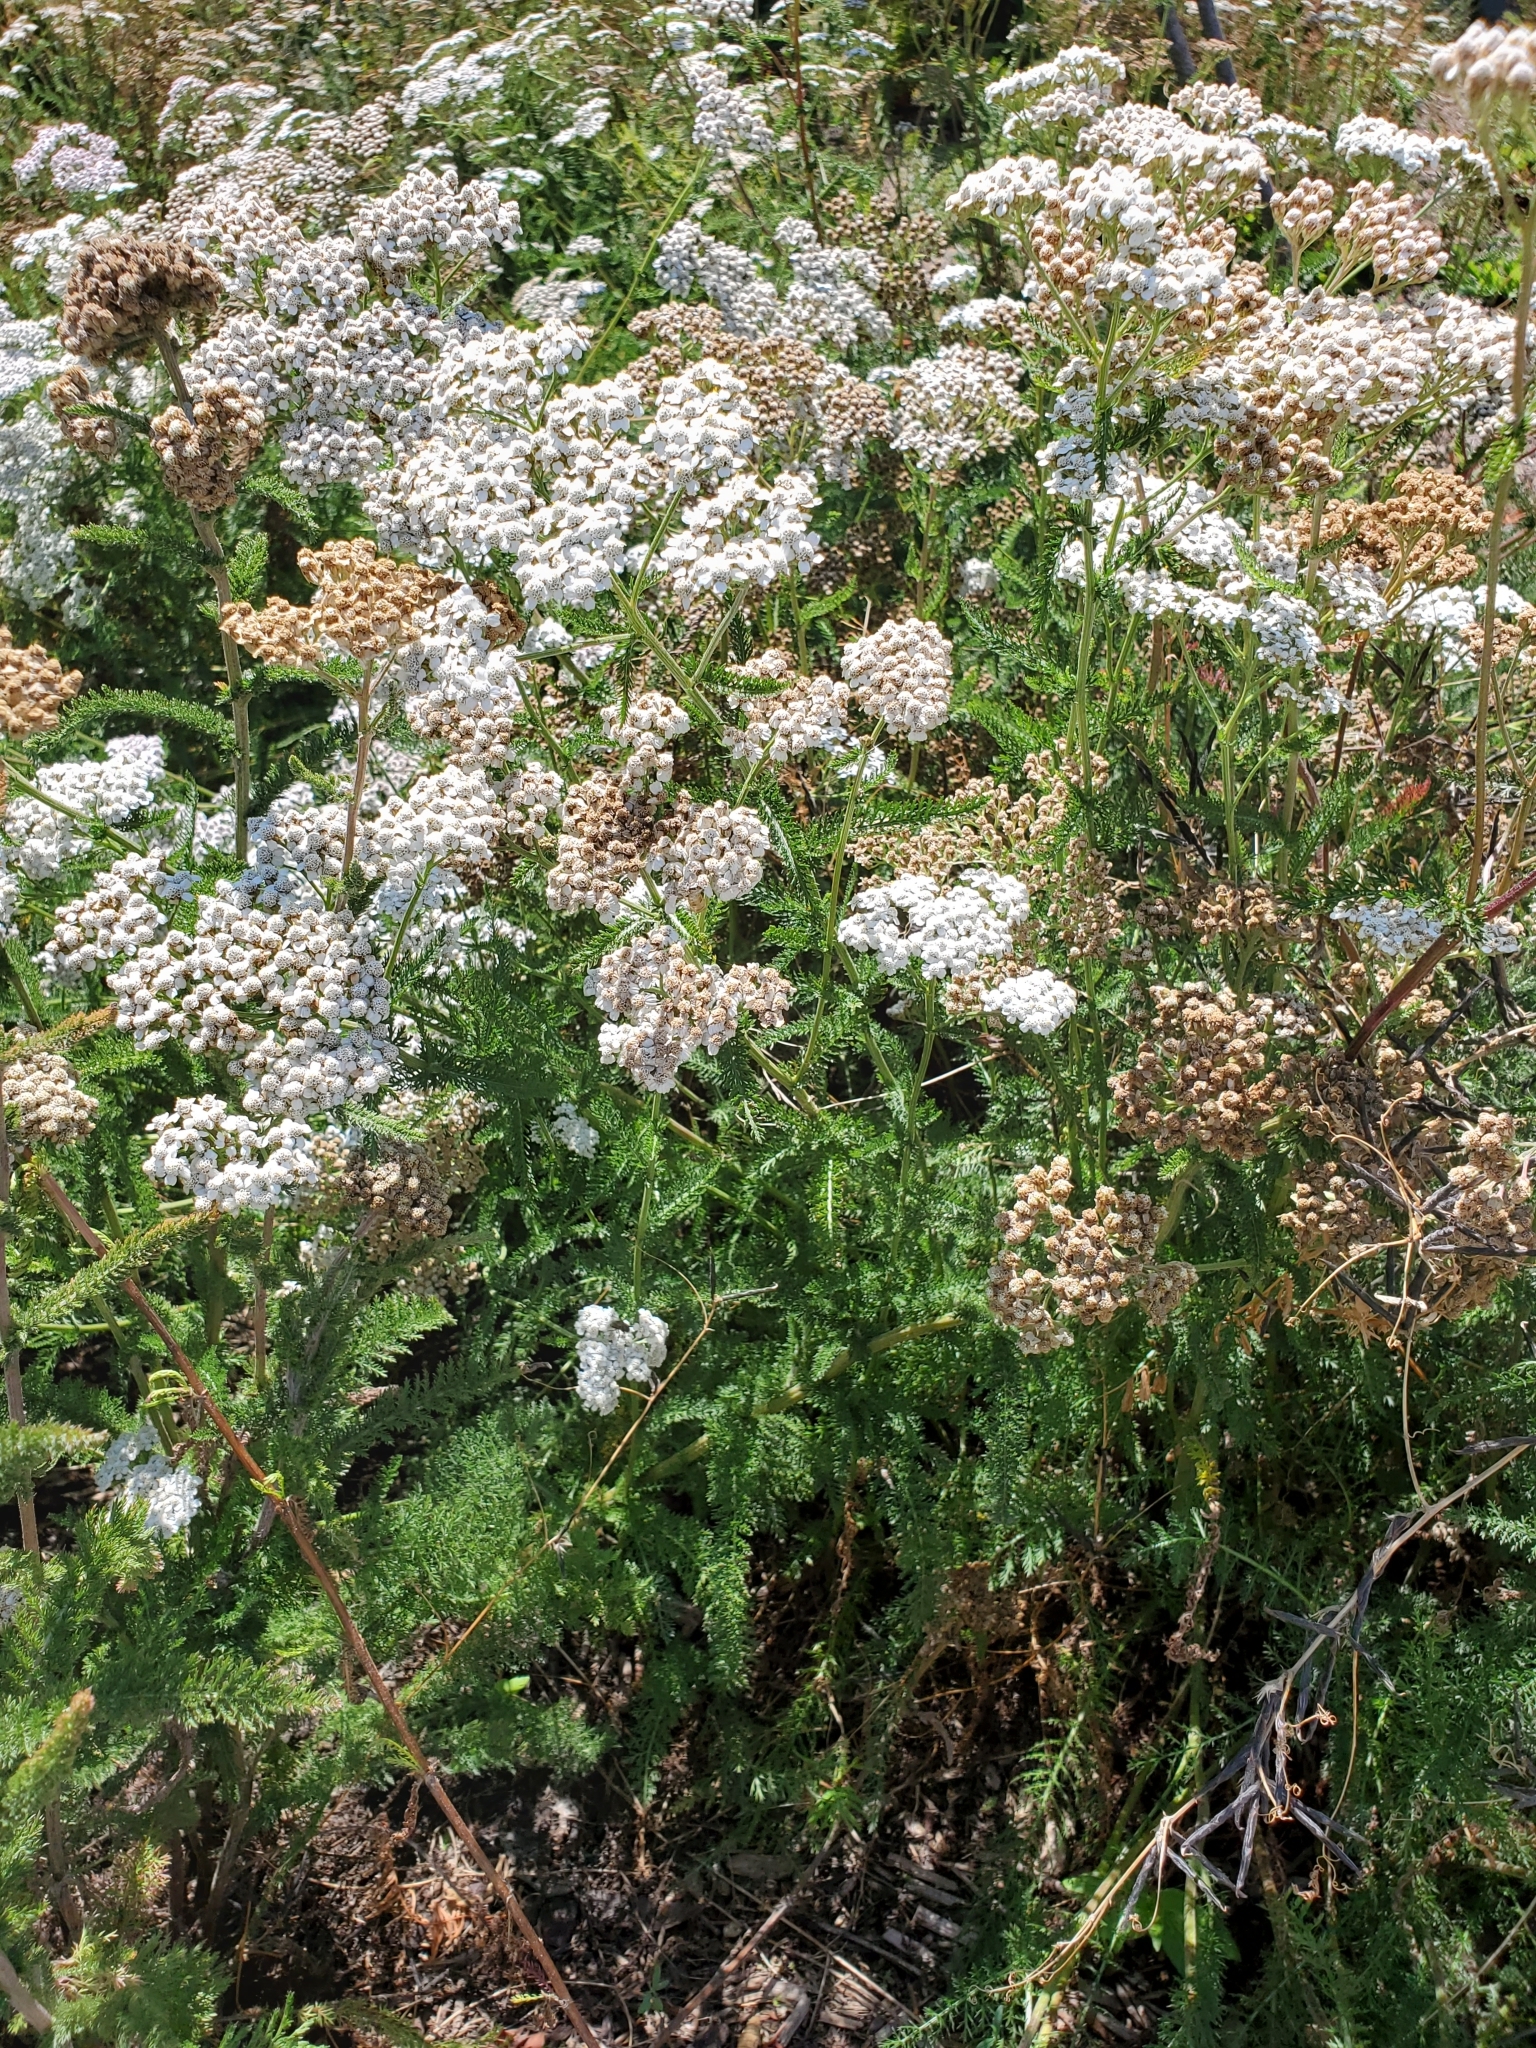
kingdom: Plantae
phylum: Tracheophyta
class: Magnoliopsida
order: Asterales
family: Asteraceae
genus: Achillea
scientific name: Achillea millefolium
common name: Yarrow
